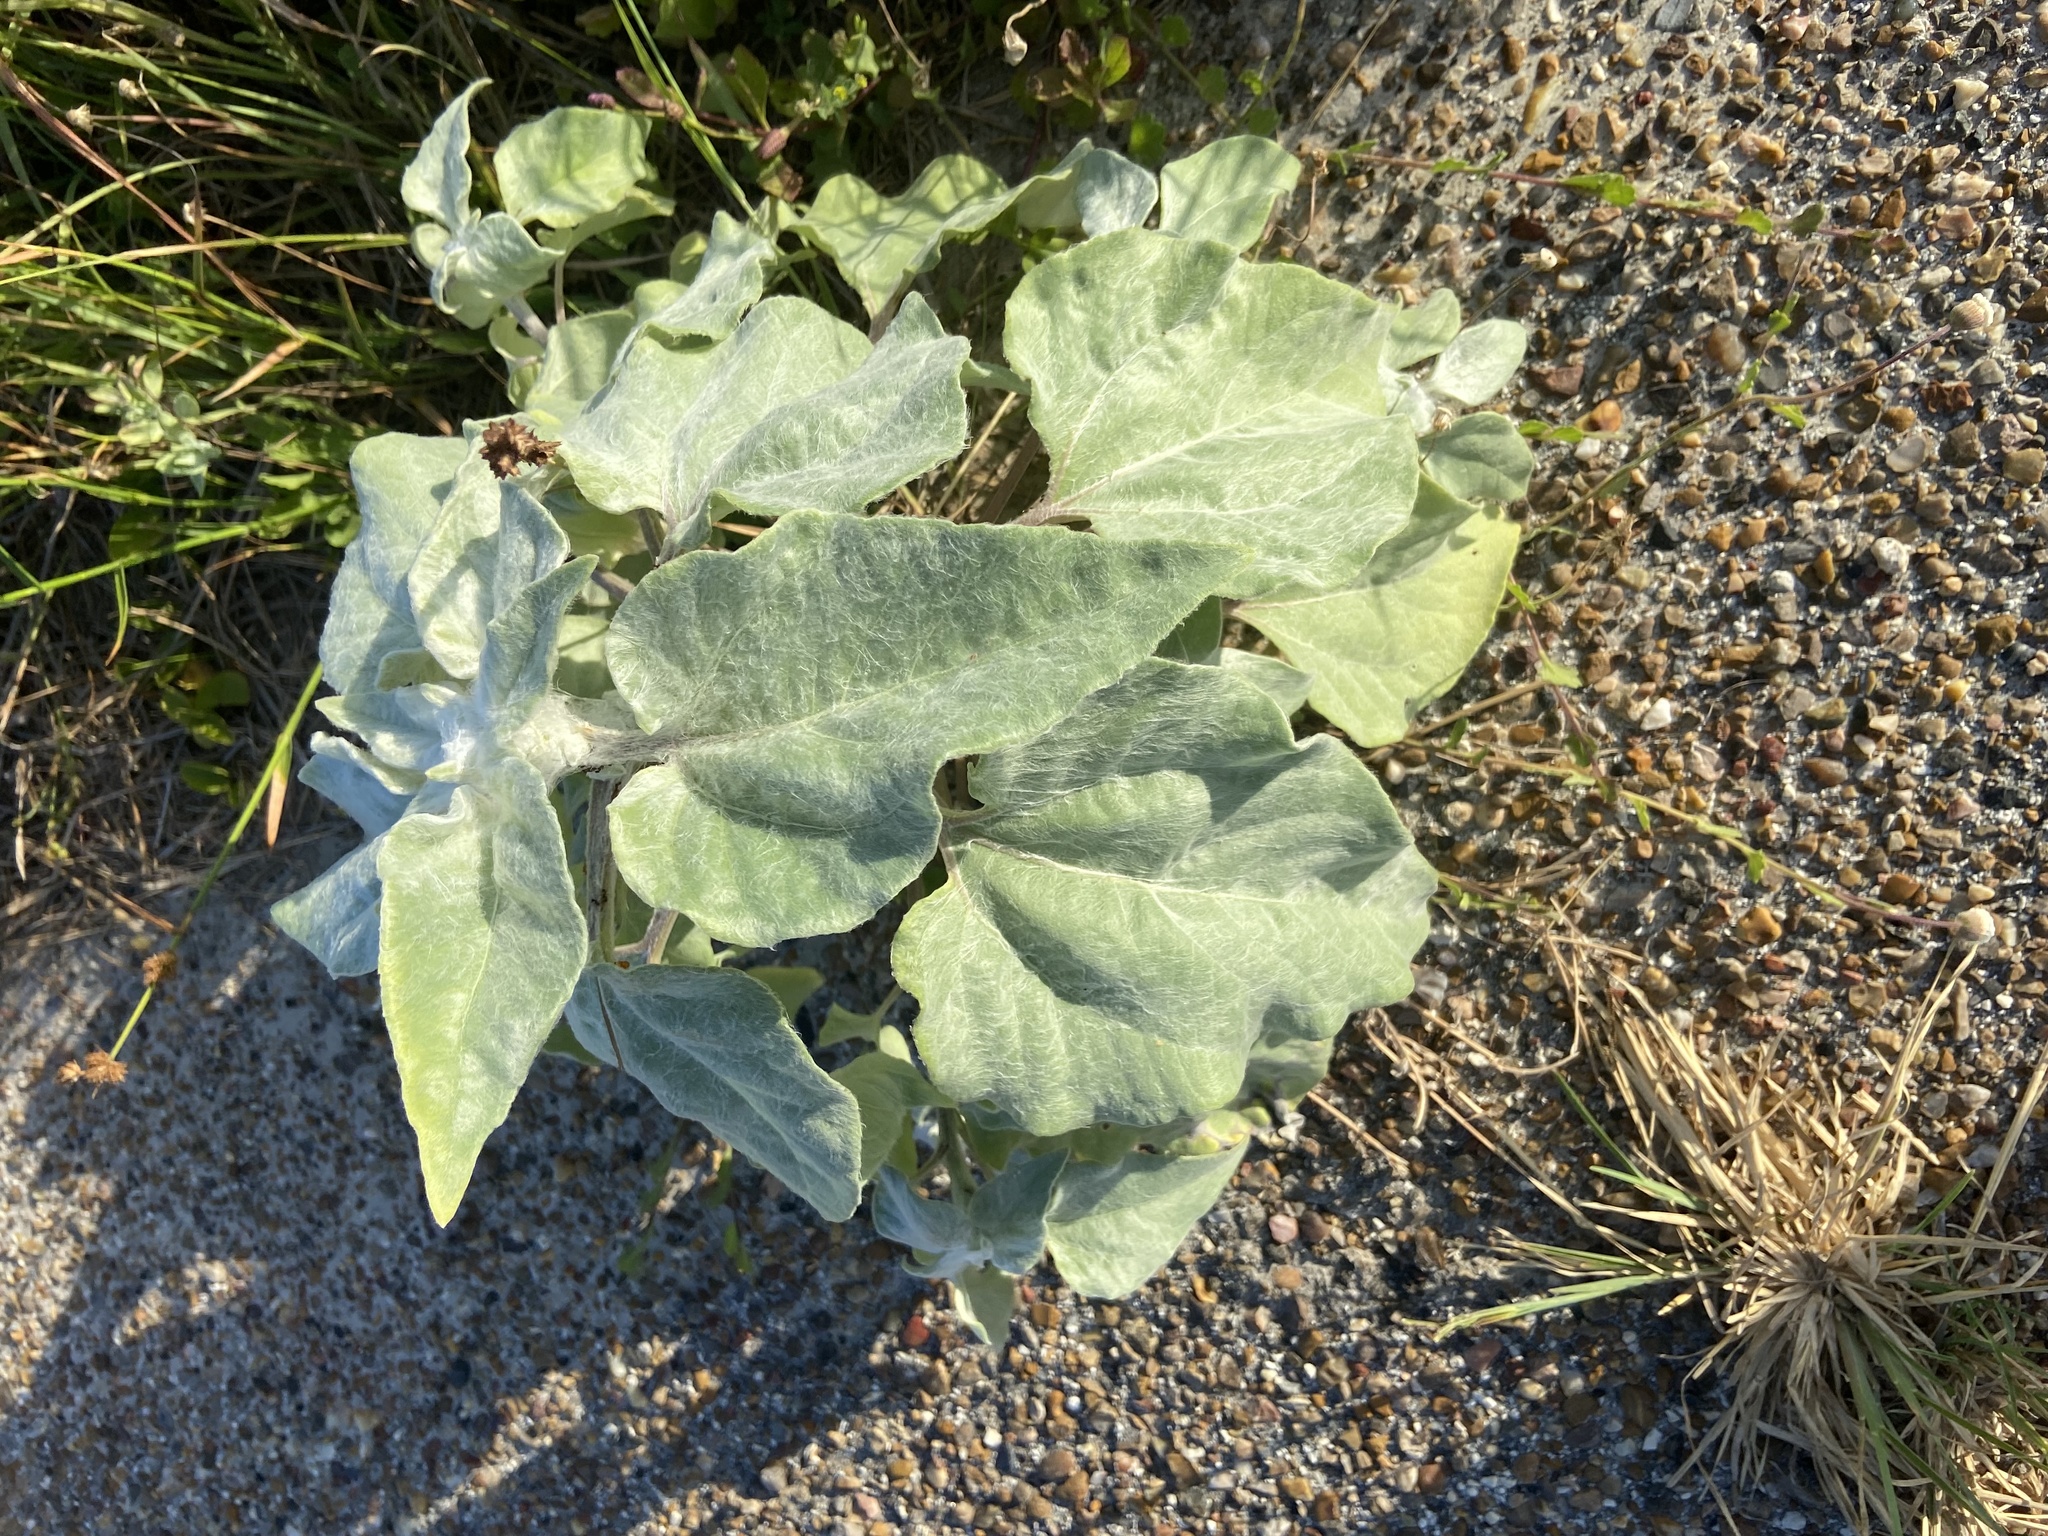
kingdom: Plantae
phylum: Tracheophyta
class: Magnoliopsida
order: Asterales
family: Asteraceae
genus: Helianthus
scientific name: Helianthus argophyllus
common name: Silverleaf sunflower
